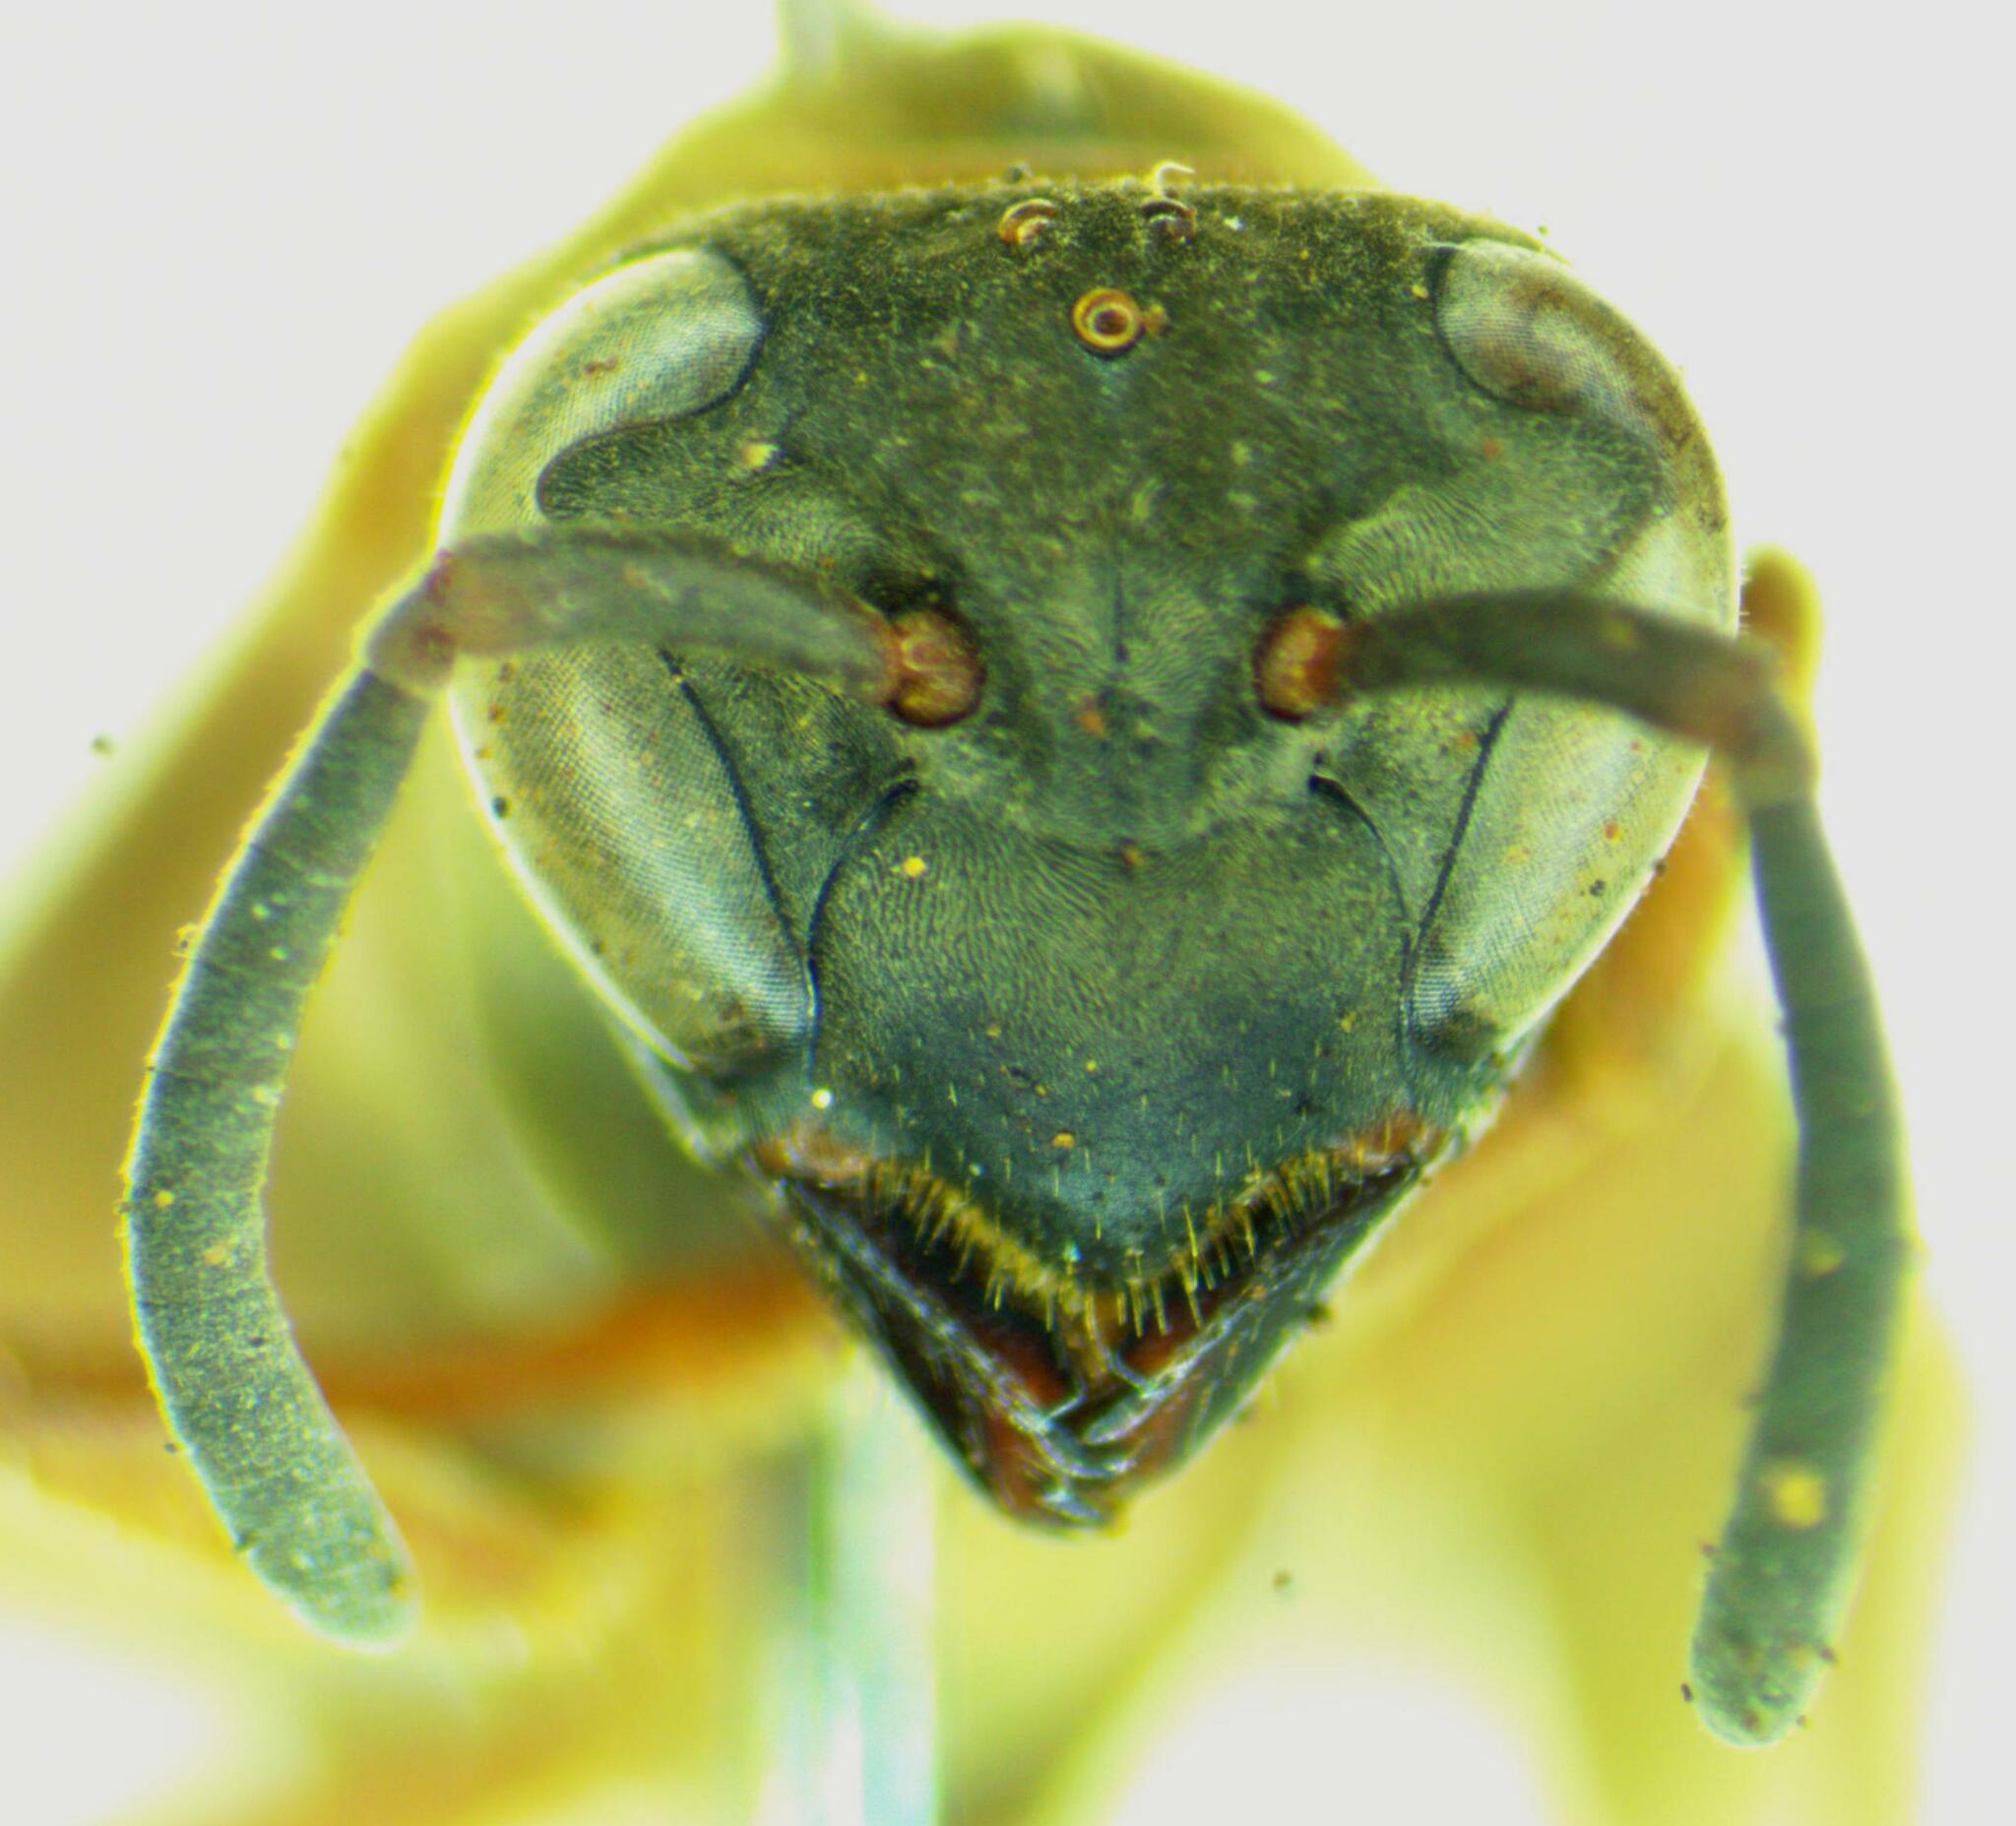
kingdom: Animalia
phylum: Arthropoda
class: Insecta
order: Hymenoptera
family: Eumenidae
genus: Polybia
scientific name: Polybia sericea
